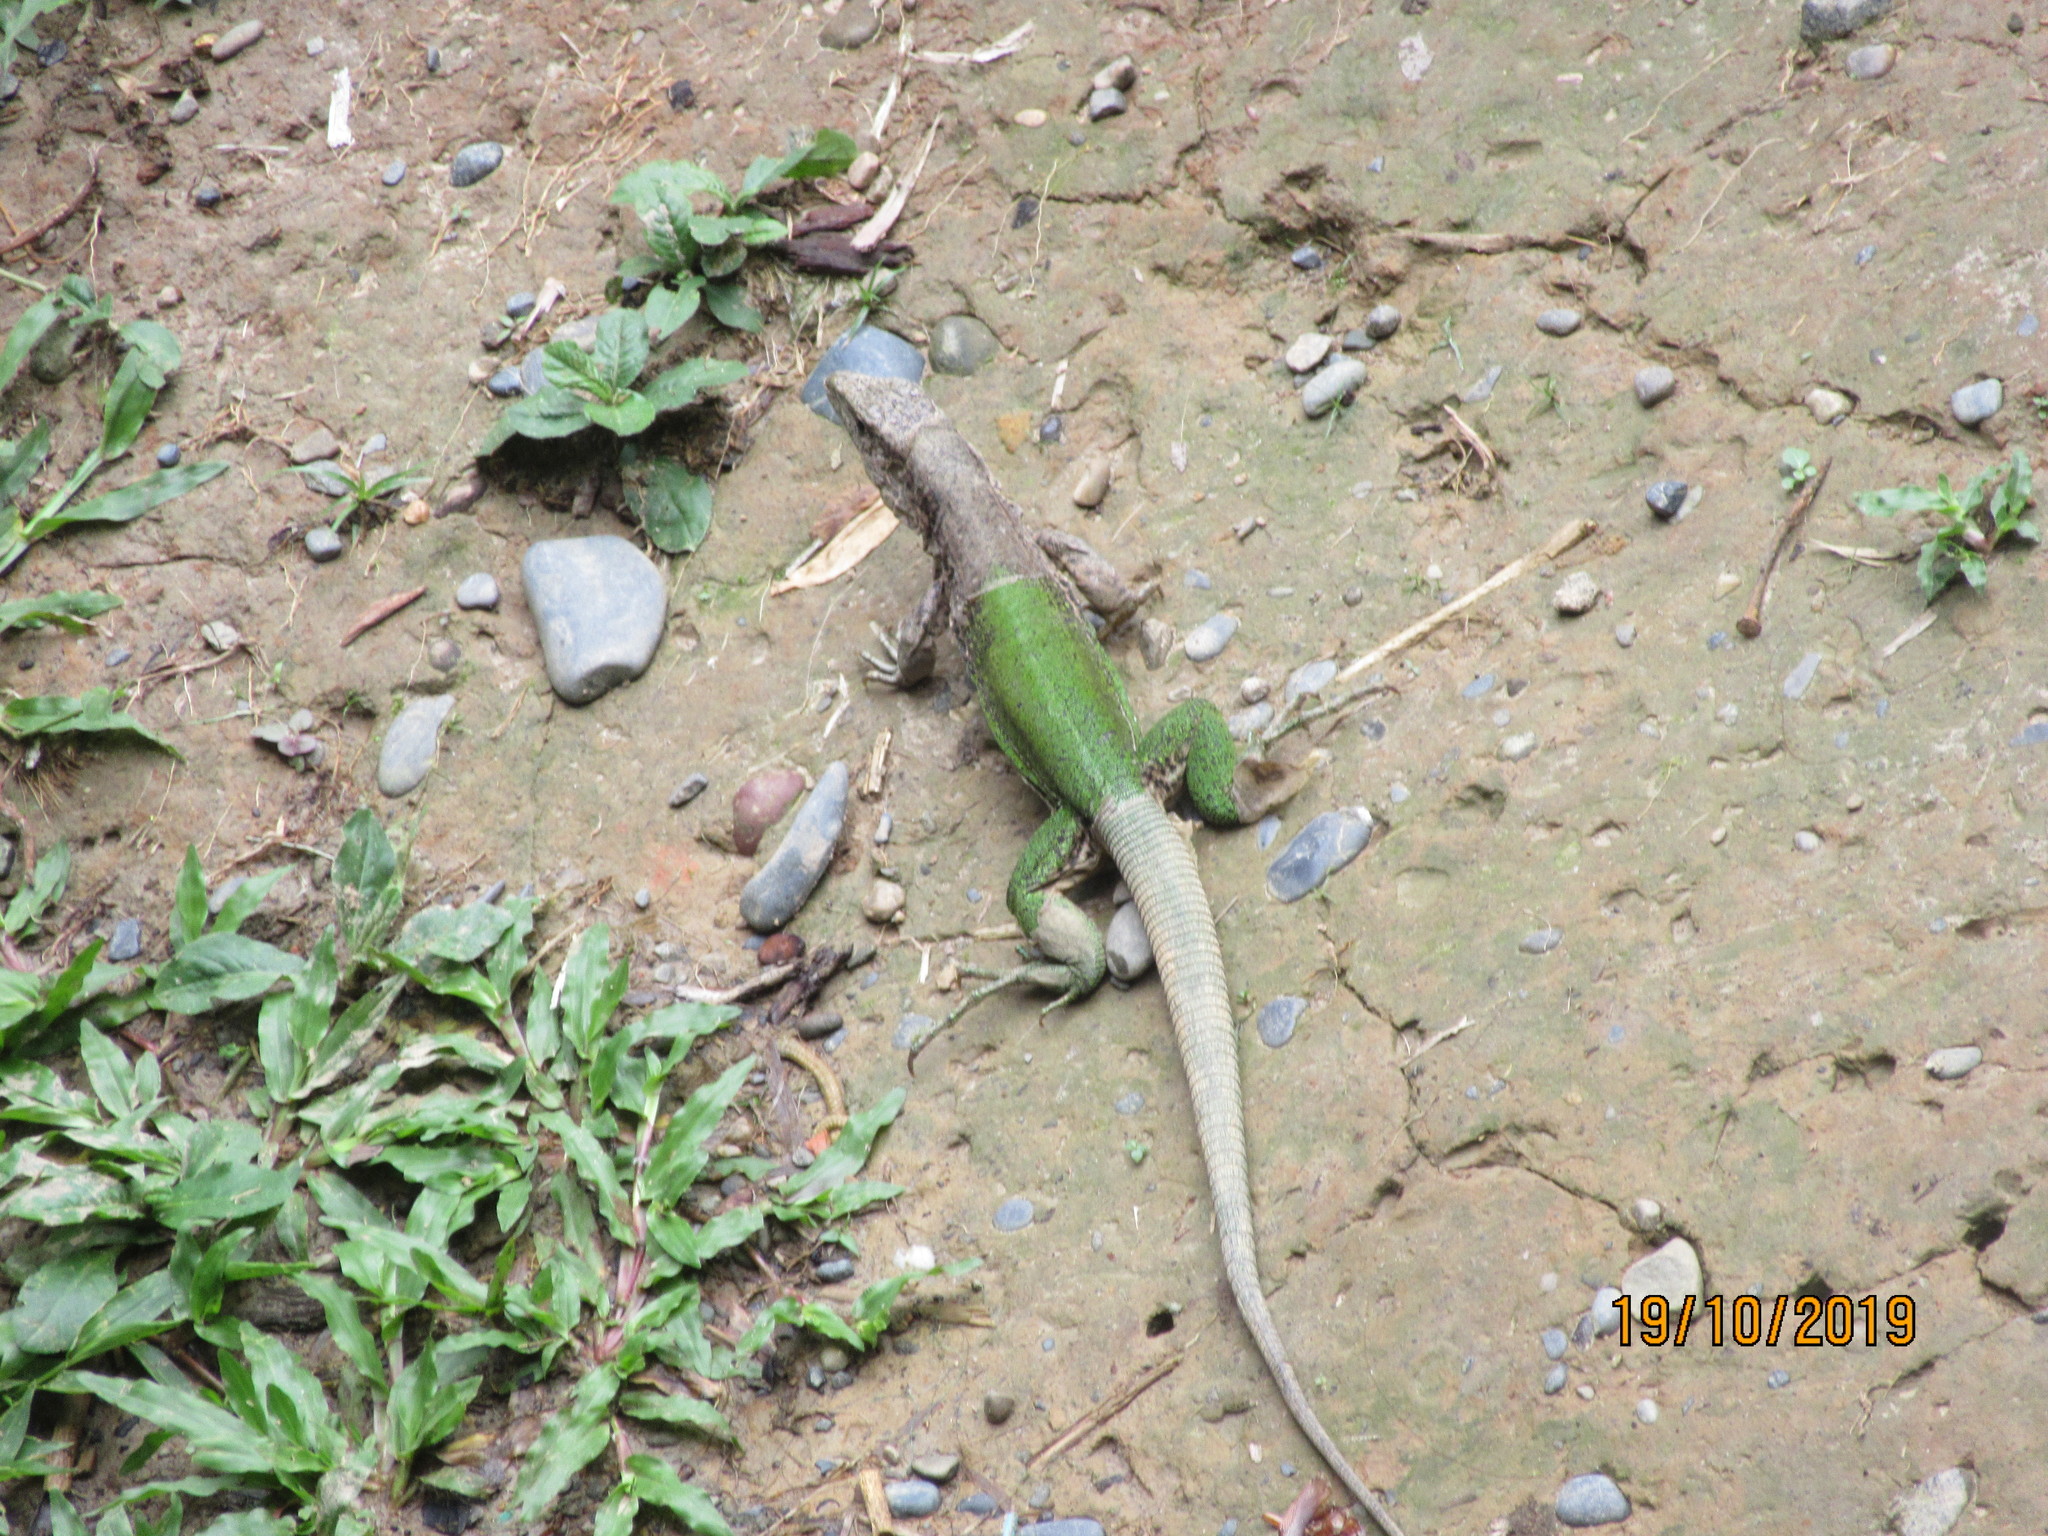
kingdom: Animalia
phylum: Chordata
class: Squamata
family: Teiidae
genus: Ameiva
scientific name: Ameiva ameiva
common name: Giant ameiva
